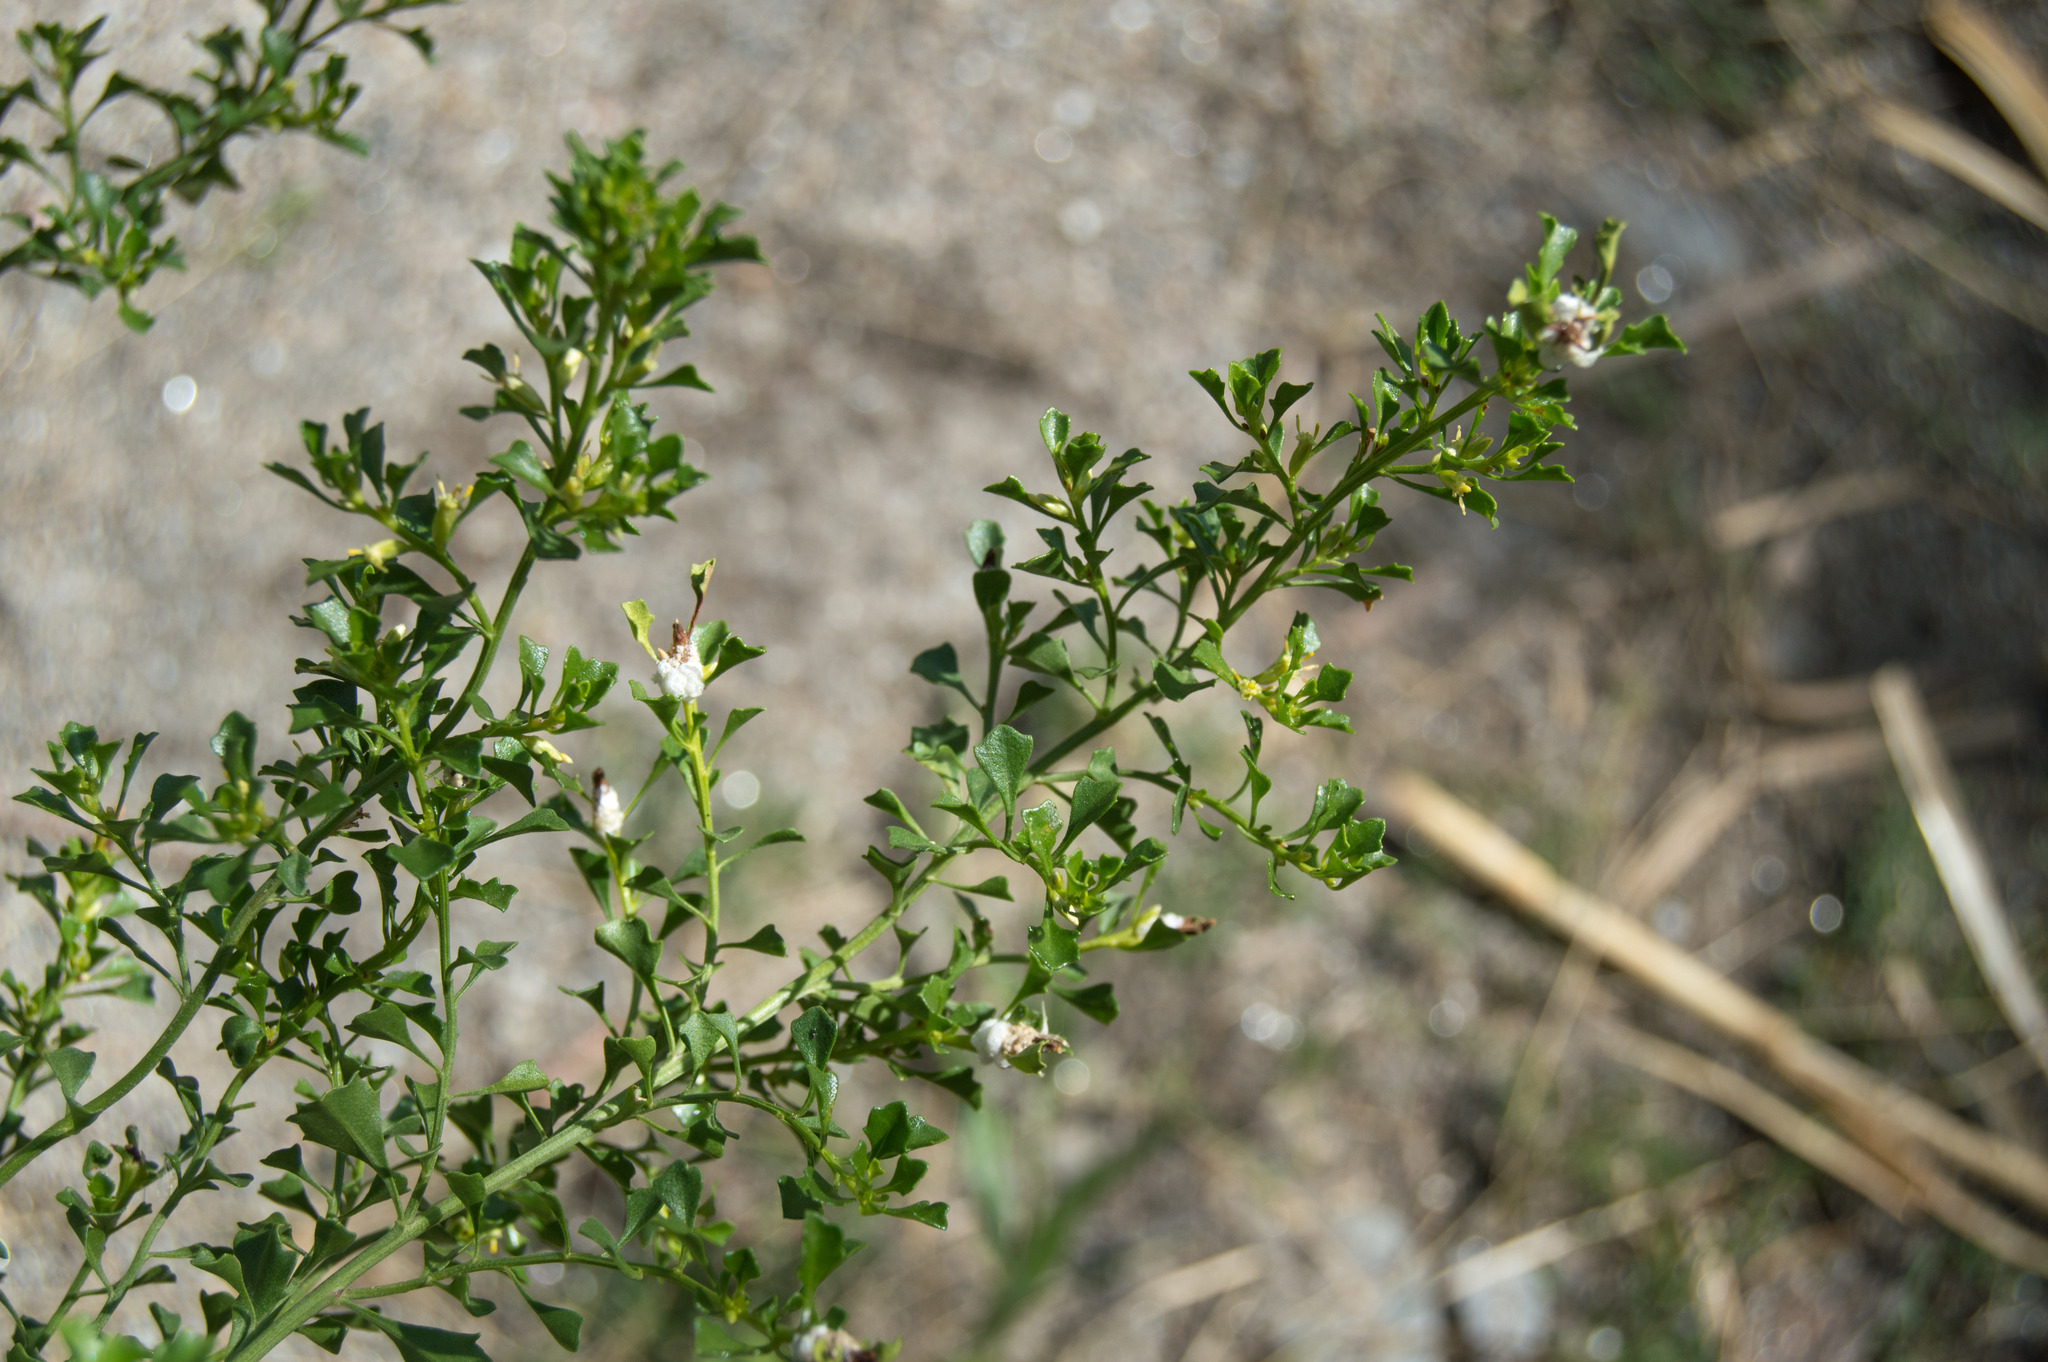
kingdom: Plantae
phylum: Tracheophyta
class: Magnoliopsida
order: Asterales
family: Asteraceae
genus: Baccharis
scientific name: Baccharis flabellata
